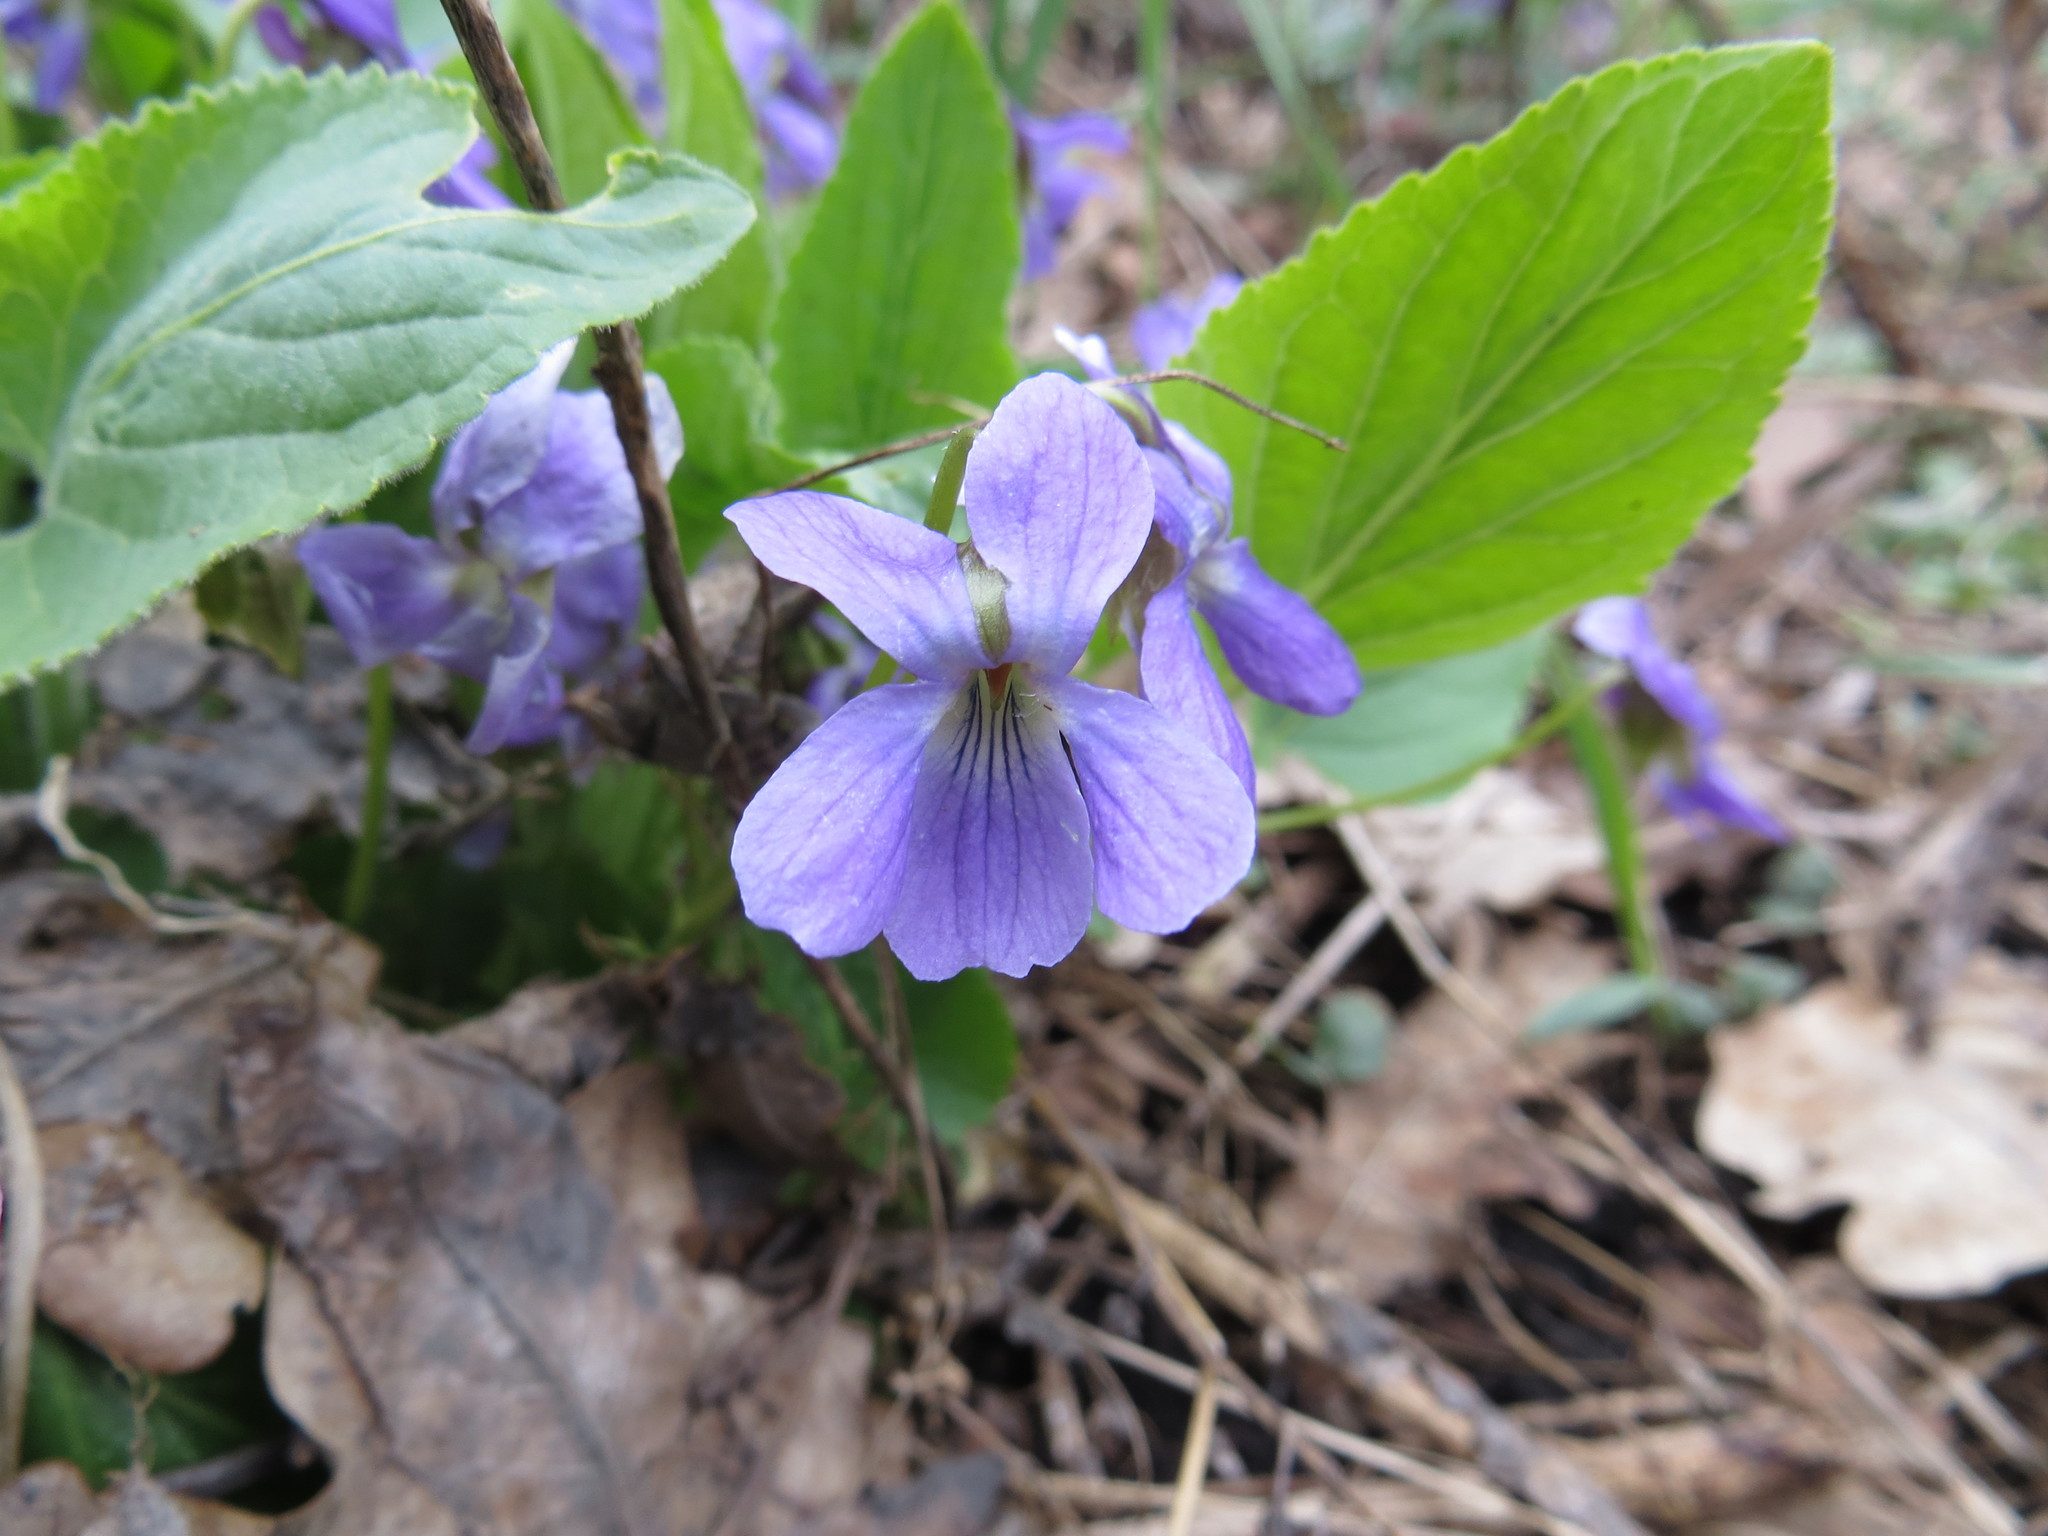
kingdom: Plantae
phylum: Tracheophyta
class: Magnoliopsida
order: Malpighiales
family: Violaceae
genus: Viola
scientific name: Viola hirta
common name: Hairy violet
